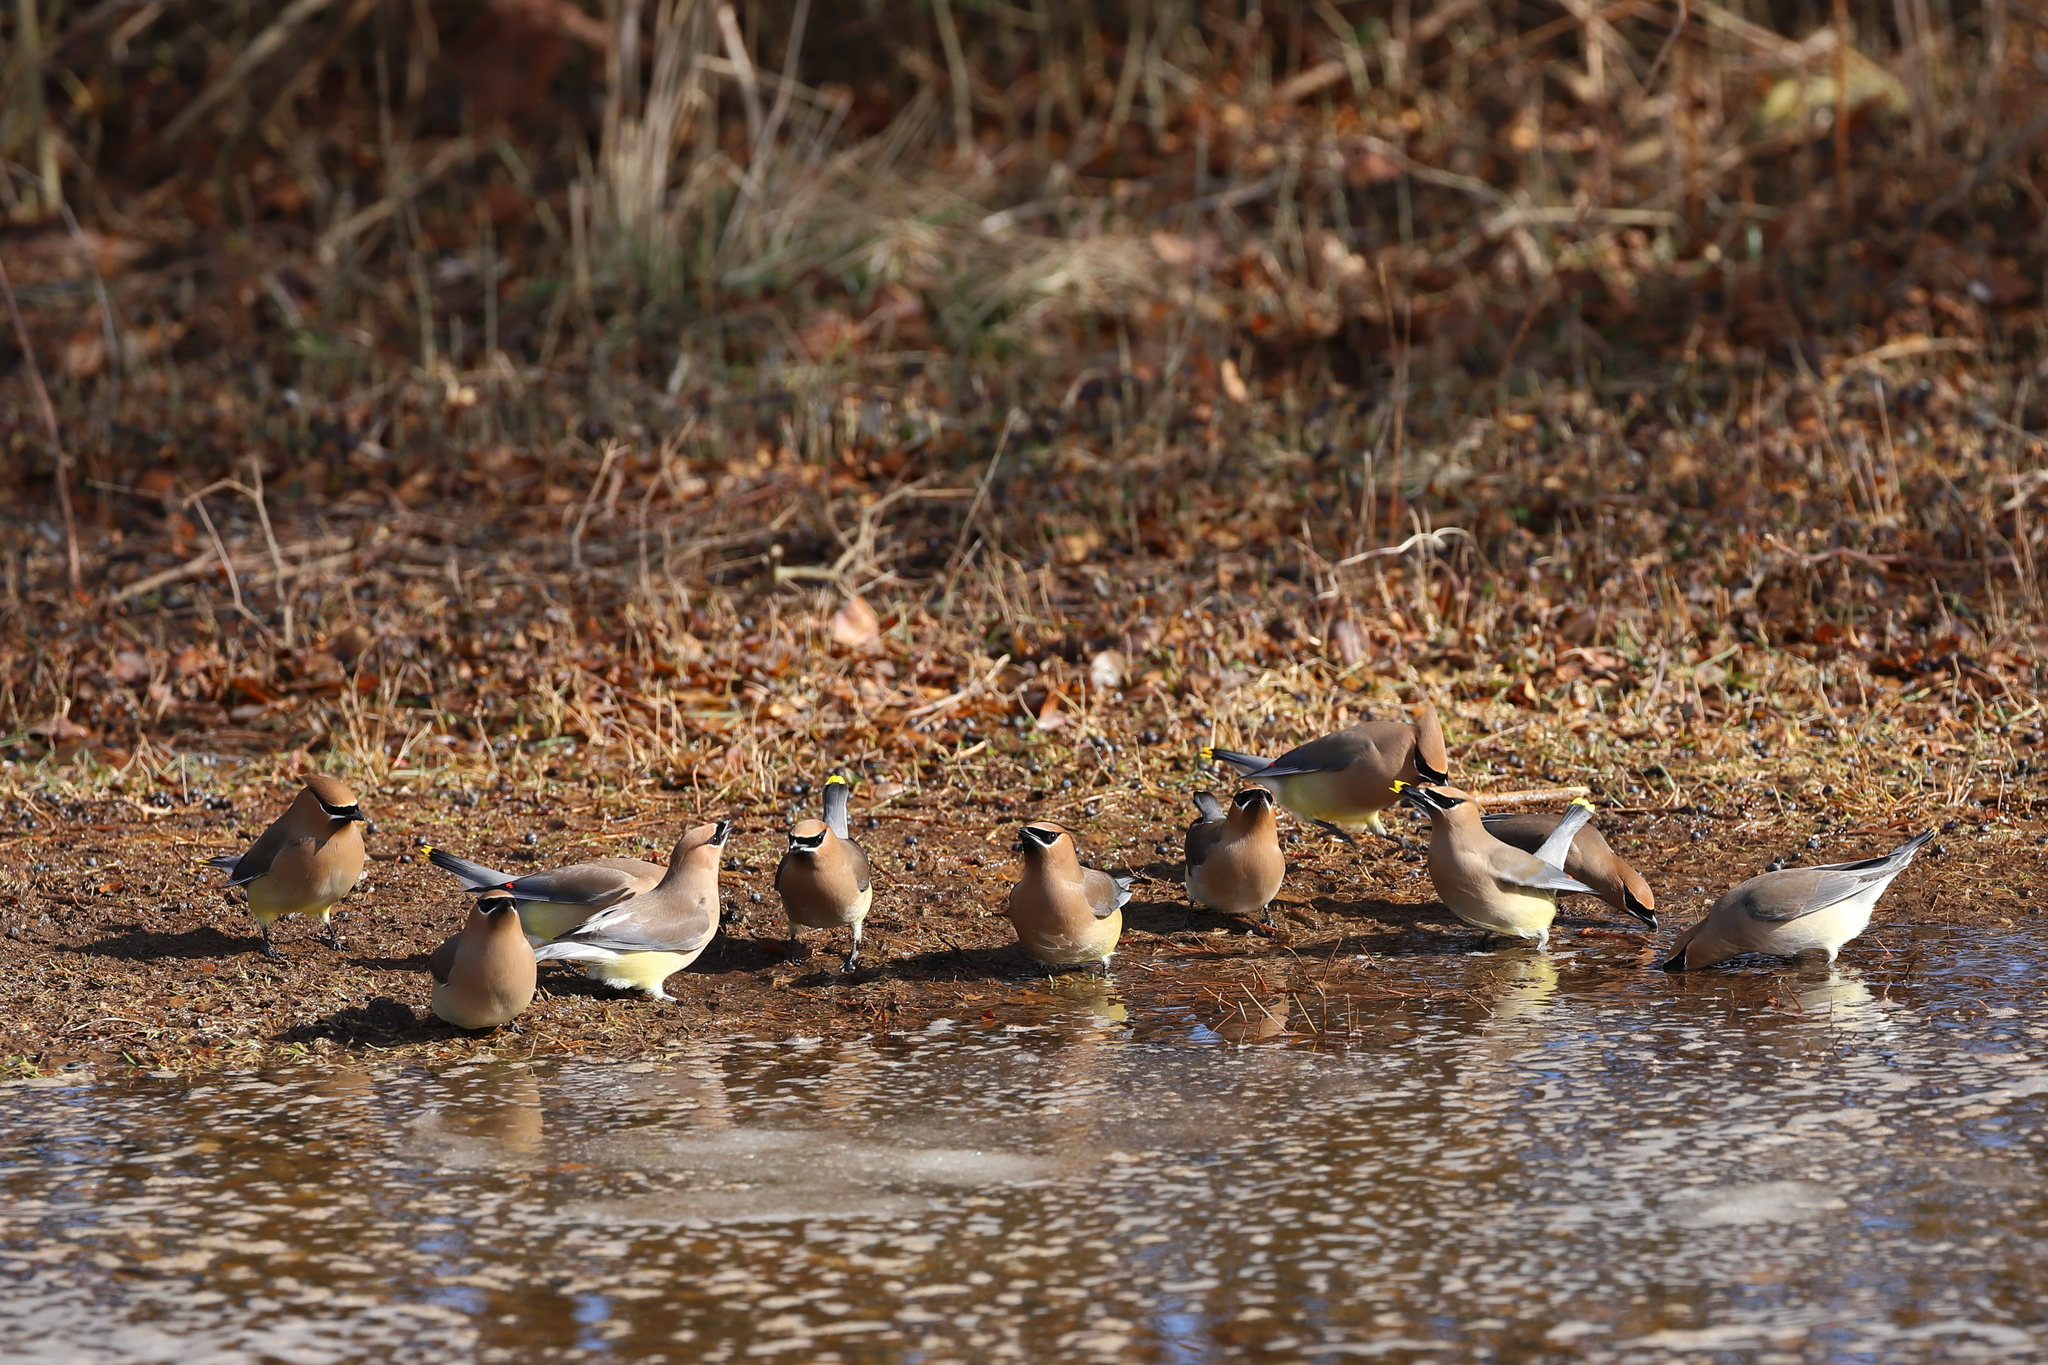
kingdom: Animalia
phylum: Chordata
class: Aves
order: Passeriformes
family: Bombycillidae
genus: Bombycilla
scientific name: Bombycilla cedrorum
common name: Cedar waxwing
